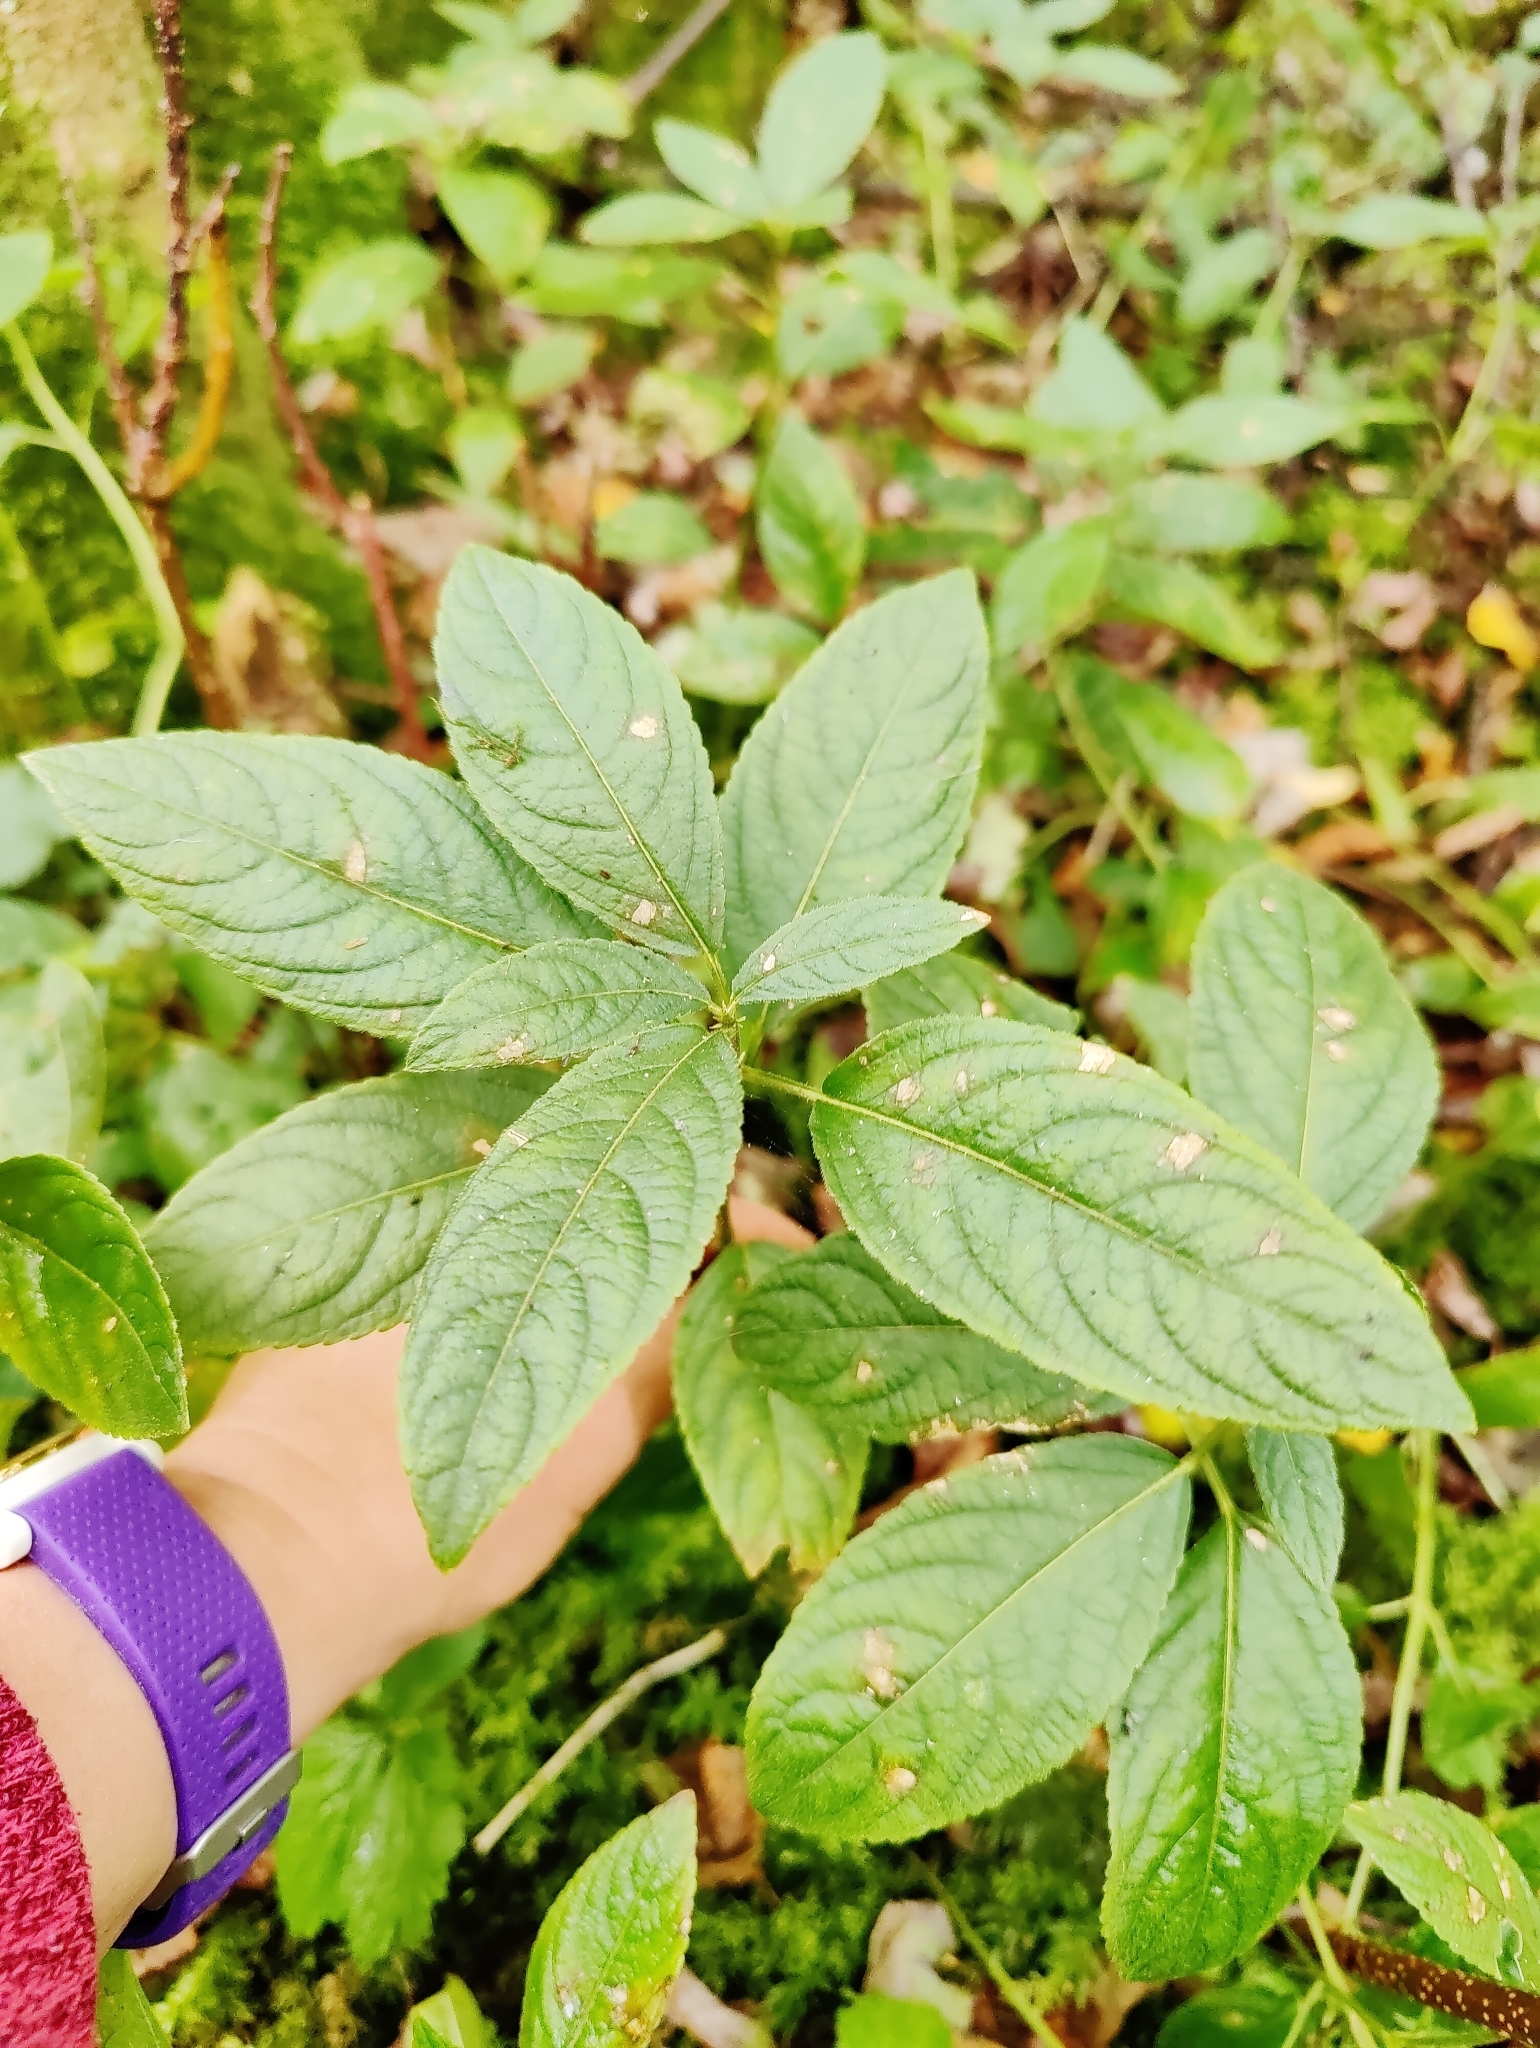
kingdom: Plantae
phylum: Tracheophyta
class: Magnoliopsida
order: Malpighiales
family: Euphorbiaceae
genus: Mercurialis
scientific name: Mercurialis perennis
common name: Dog mercury
